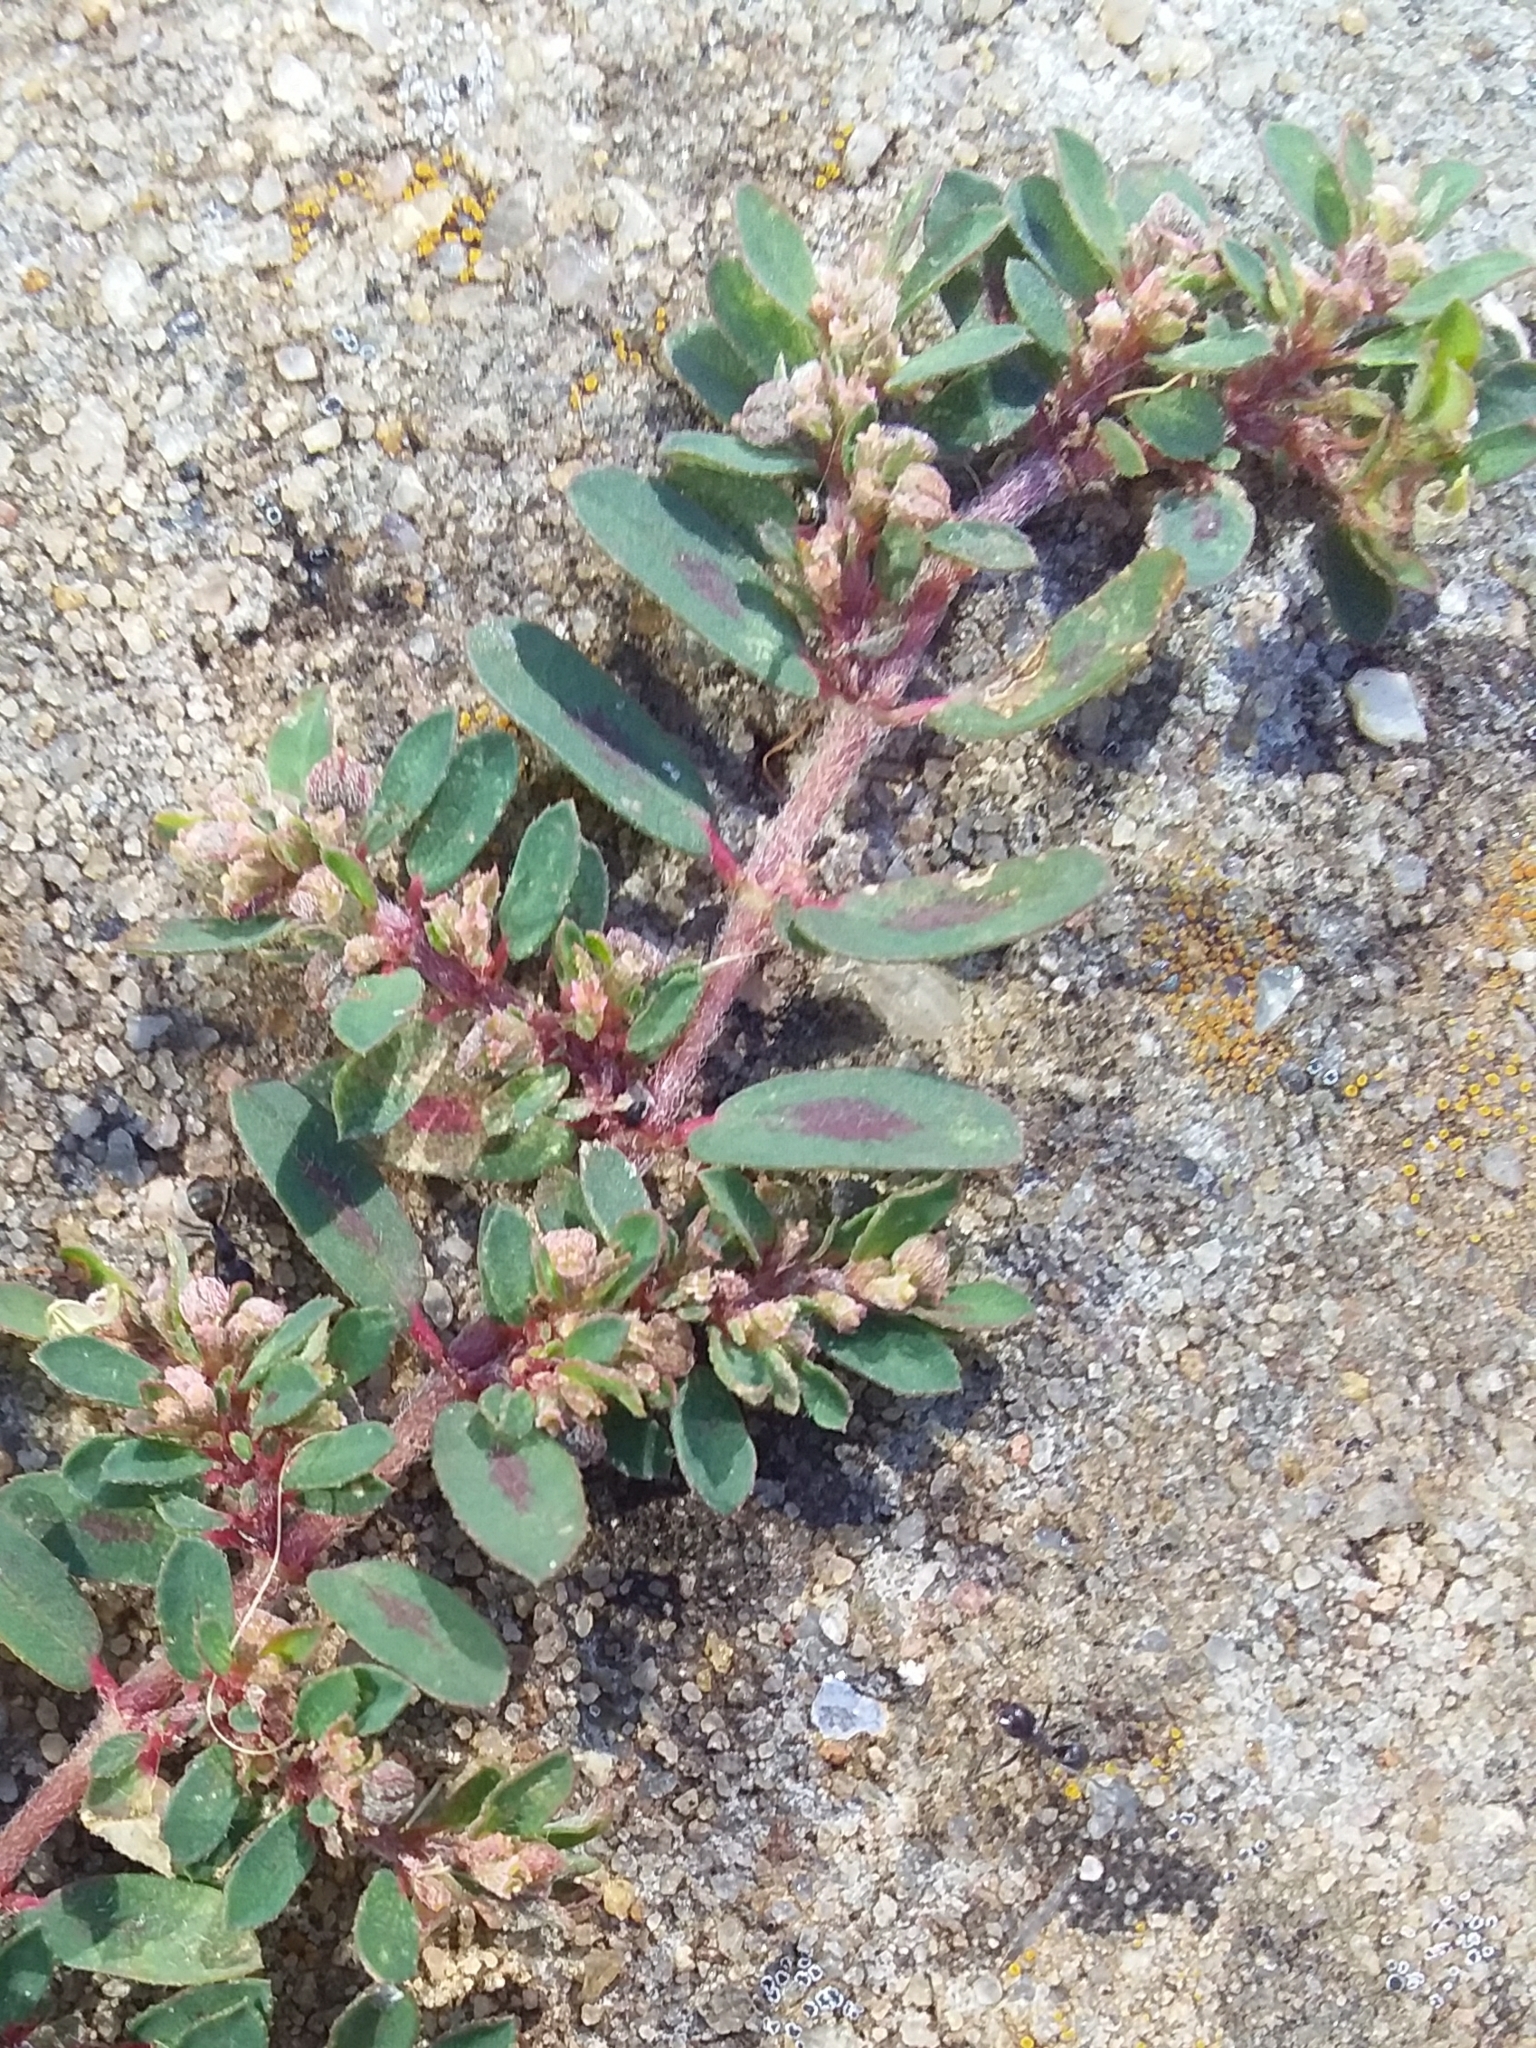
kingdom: Plantae
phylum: Tracheophyta
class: Magnoliopsida
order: Malpighiales
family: Euphorbiaceae
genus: Euphorbia
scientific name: Euphorbia maculata
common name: Spotted spurge
